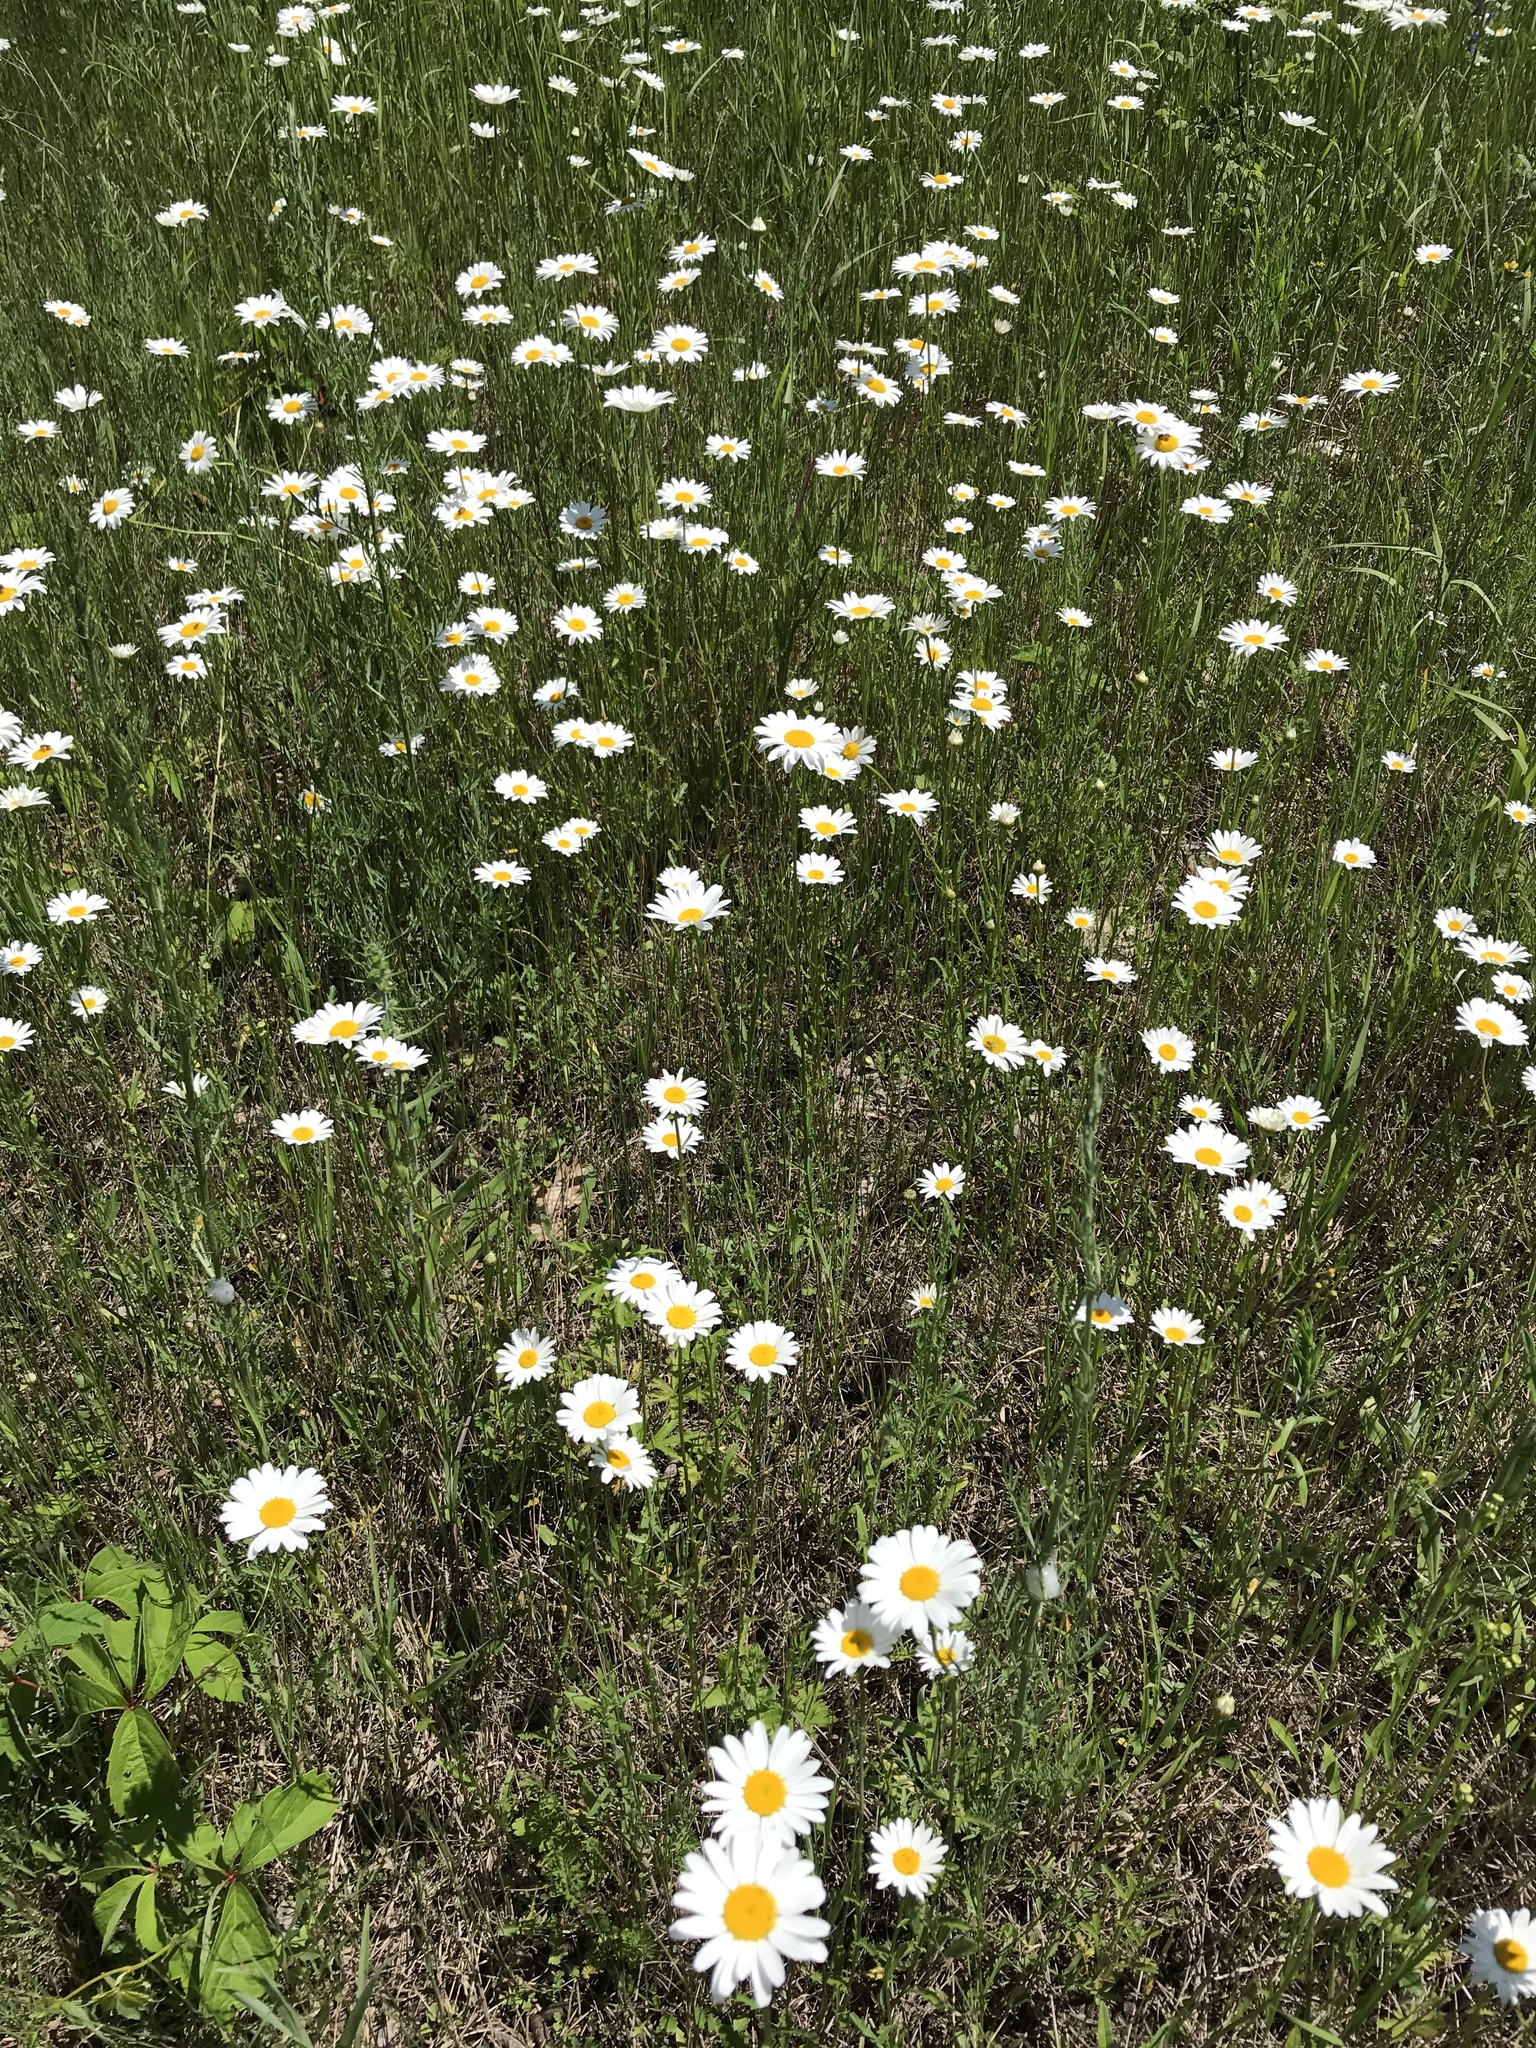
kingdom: Plantae
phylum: Tracheophyta
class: Magnoliopsida
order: Asterales
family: Asteraceae
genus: Leucanthemum
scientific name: Leucanthemum vulgare
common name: Oxeye daisy
